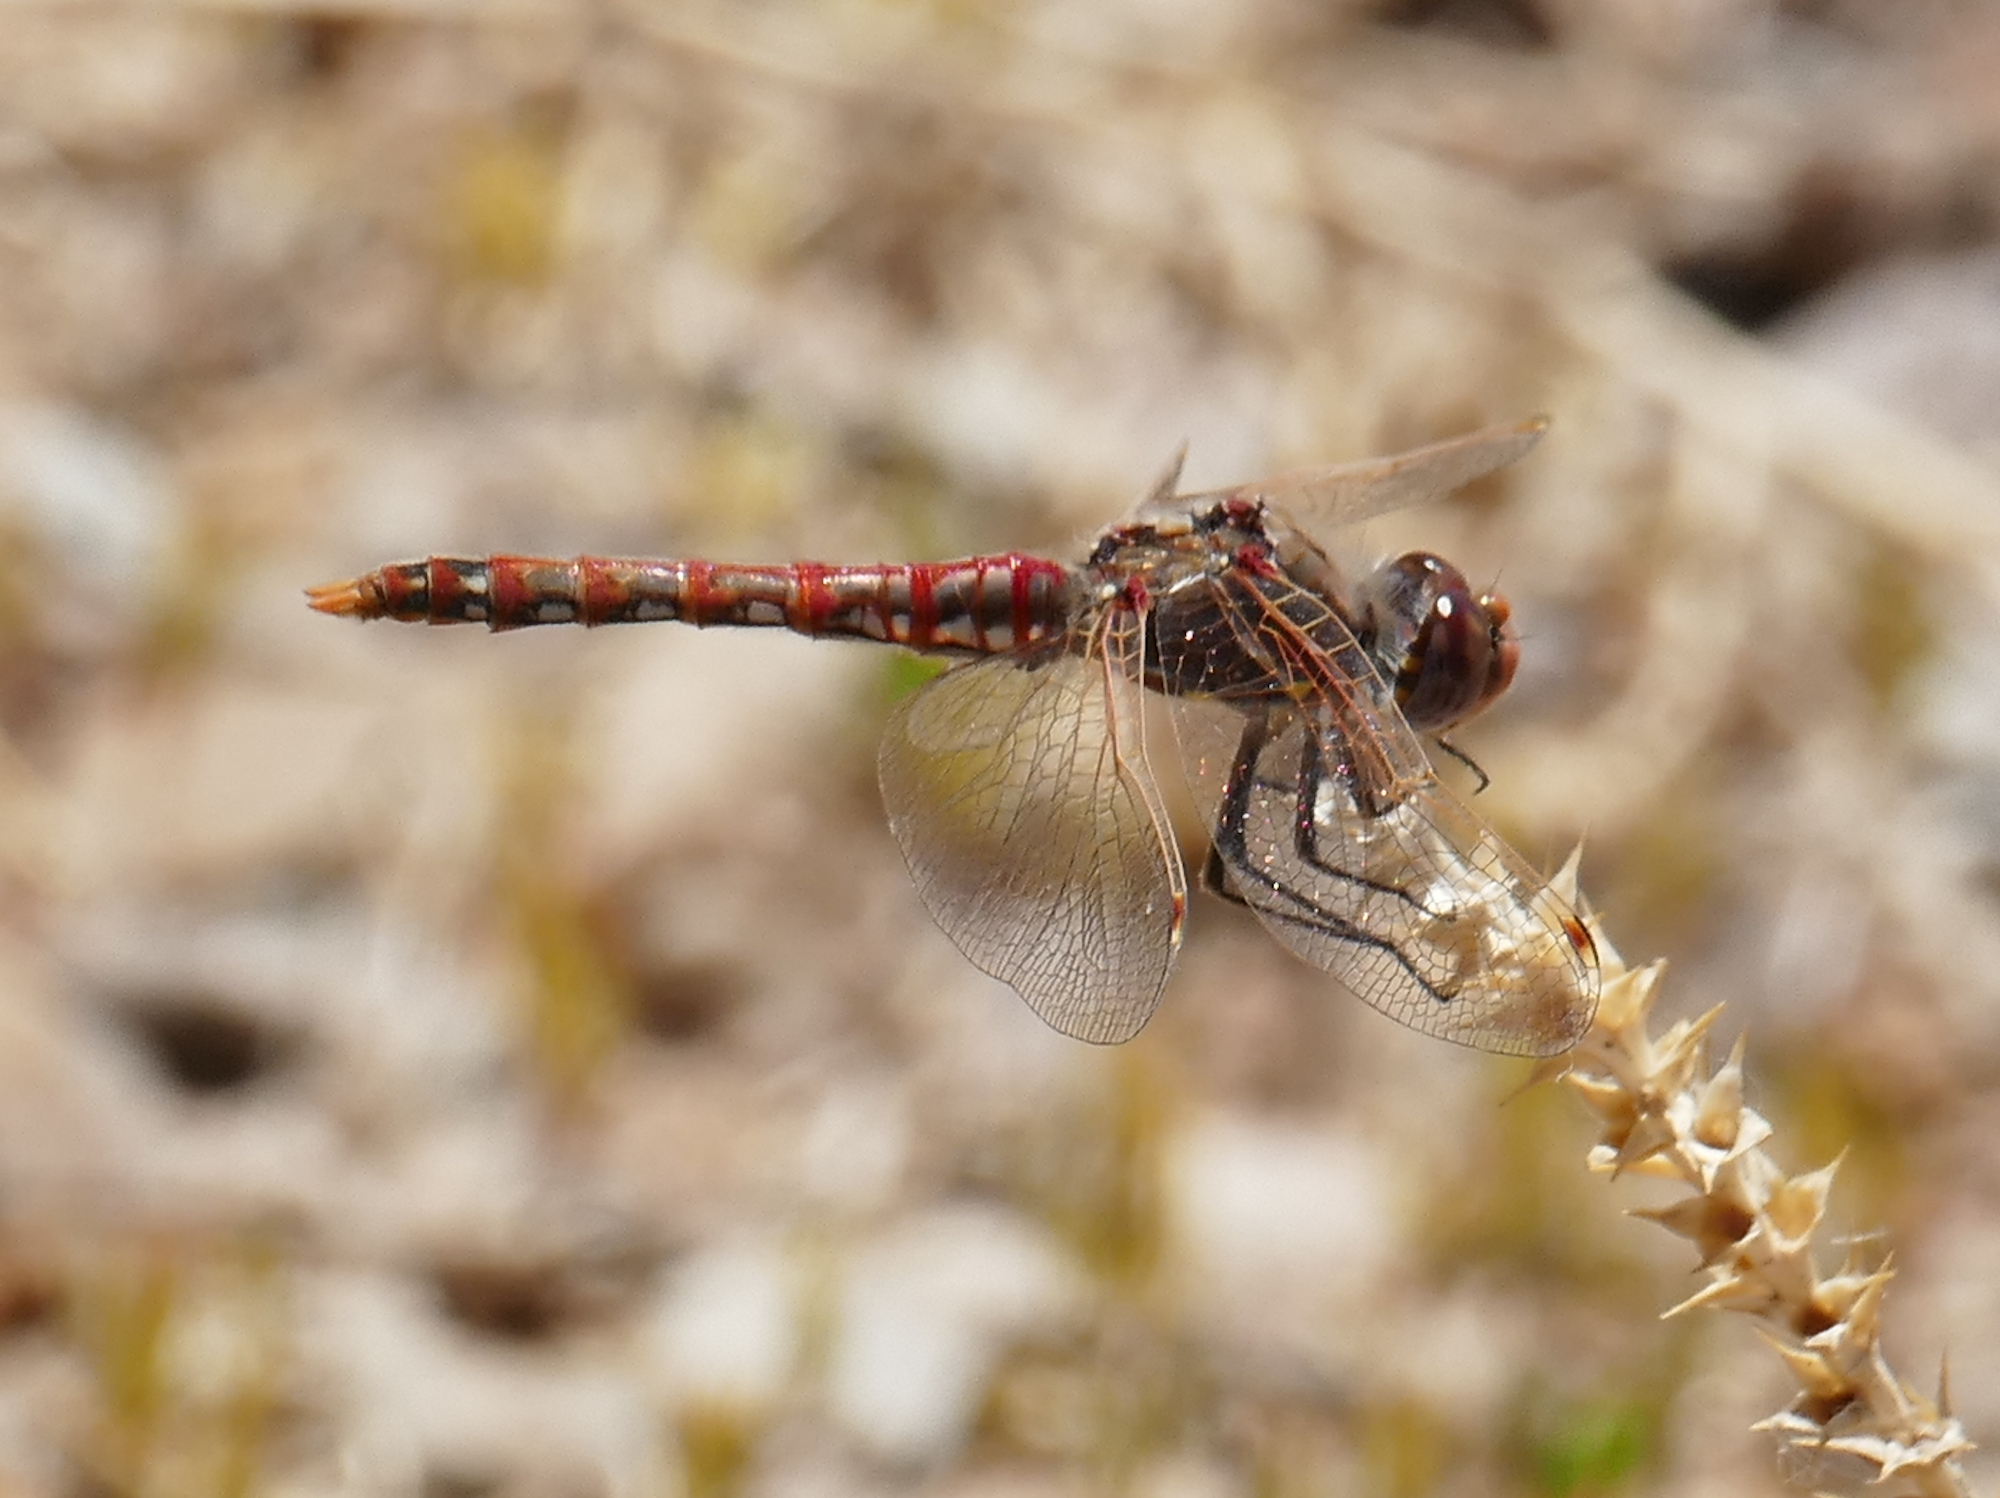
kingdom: Animalia
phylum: Arthropoda
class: Insecta
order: Odonata
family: Libellulidae
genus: Sympetrum
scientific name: Sympetrum corruptum
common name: Variegated meadowhawk
